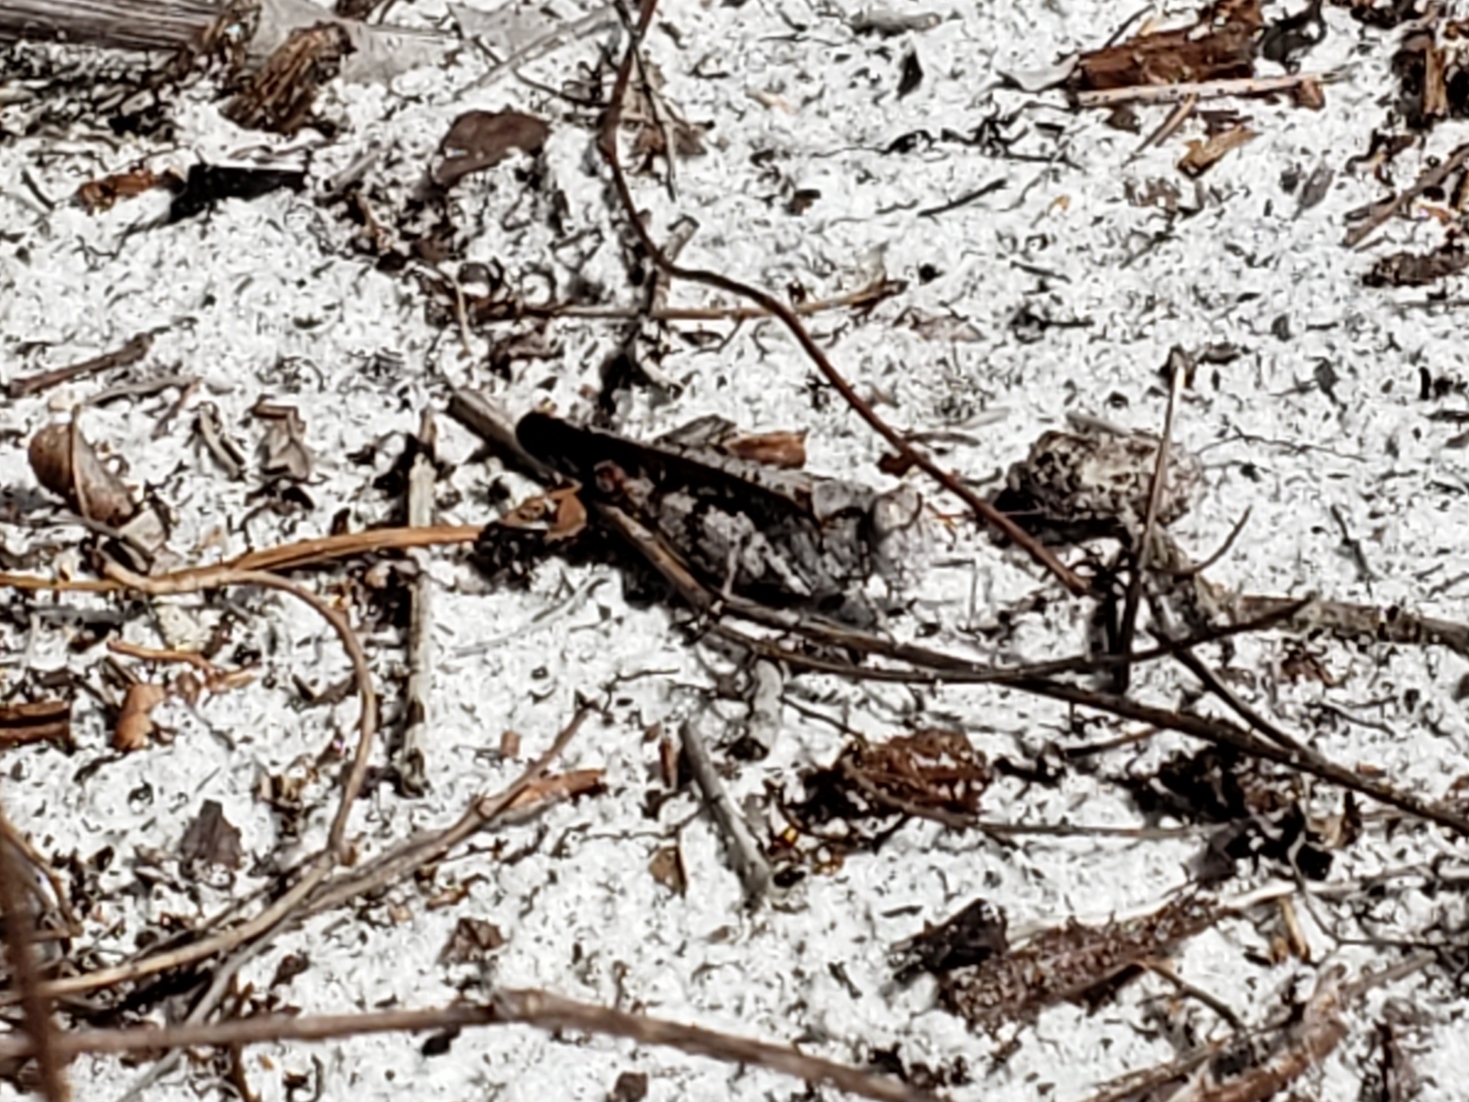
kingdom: Animalia
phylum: Arthropoda
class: Insecta
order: Orthoptera
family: Acrididae
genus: Spharagemon
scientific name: Spharagemon marmoratum
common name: Marbled grasshopper
